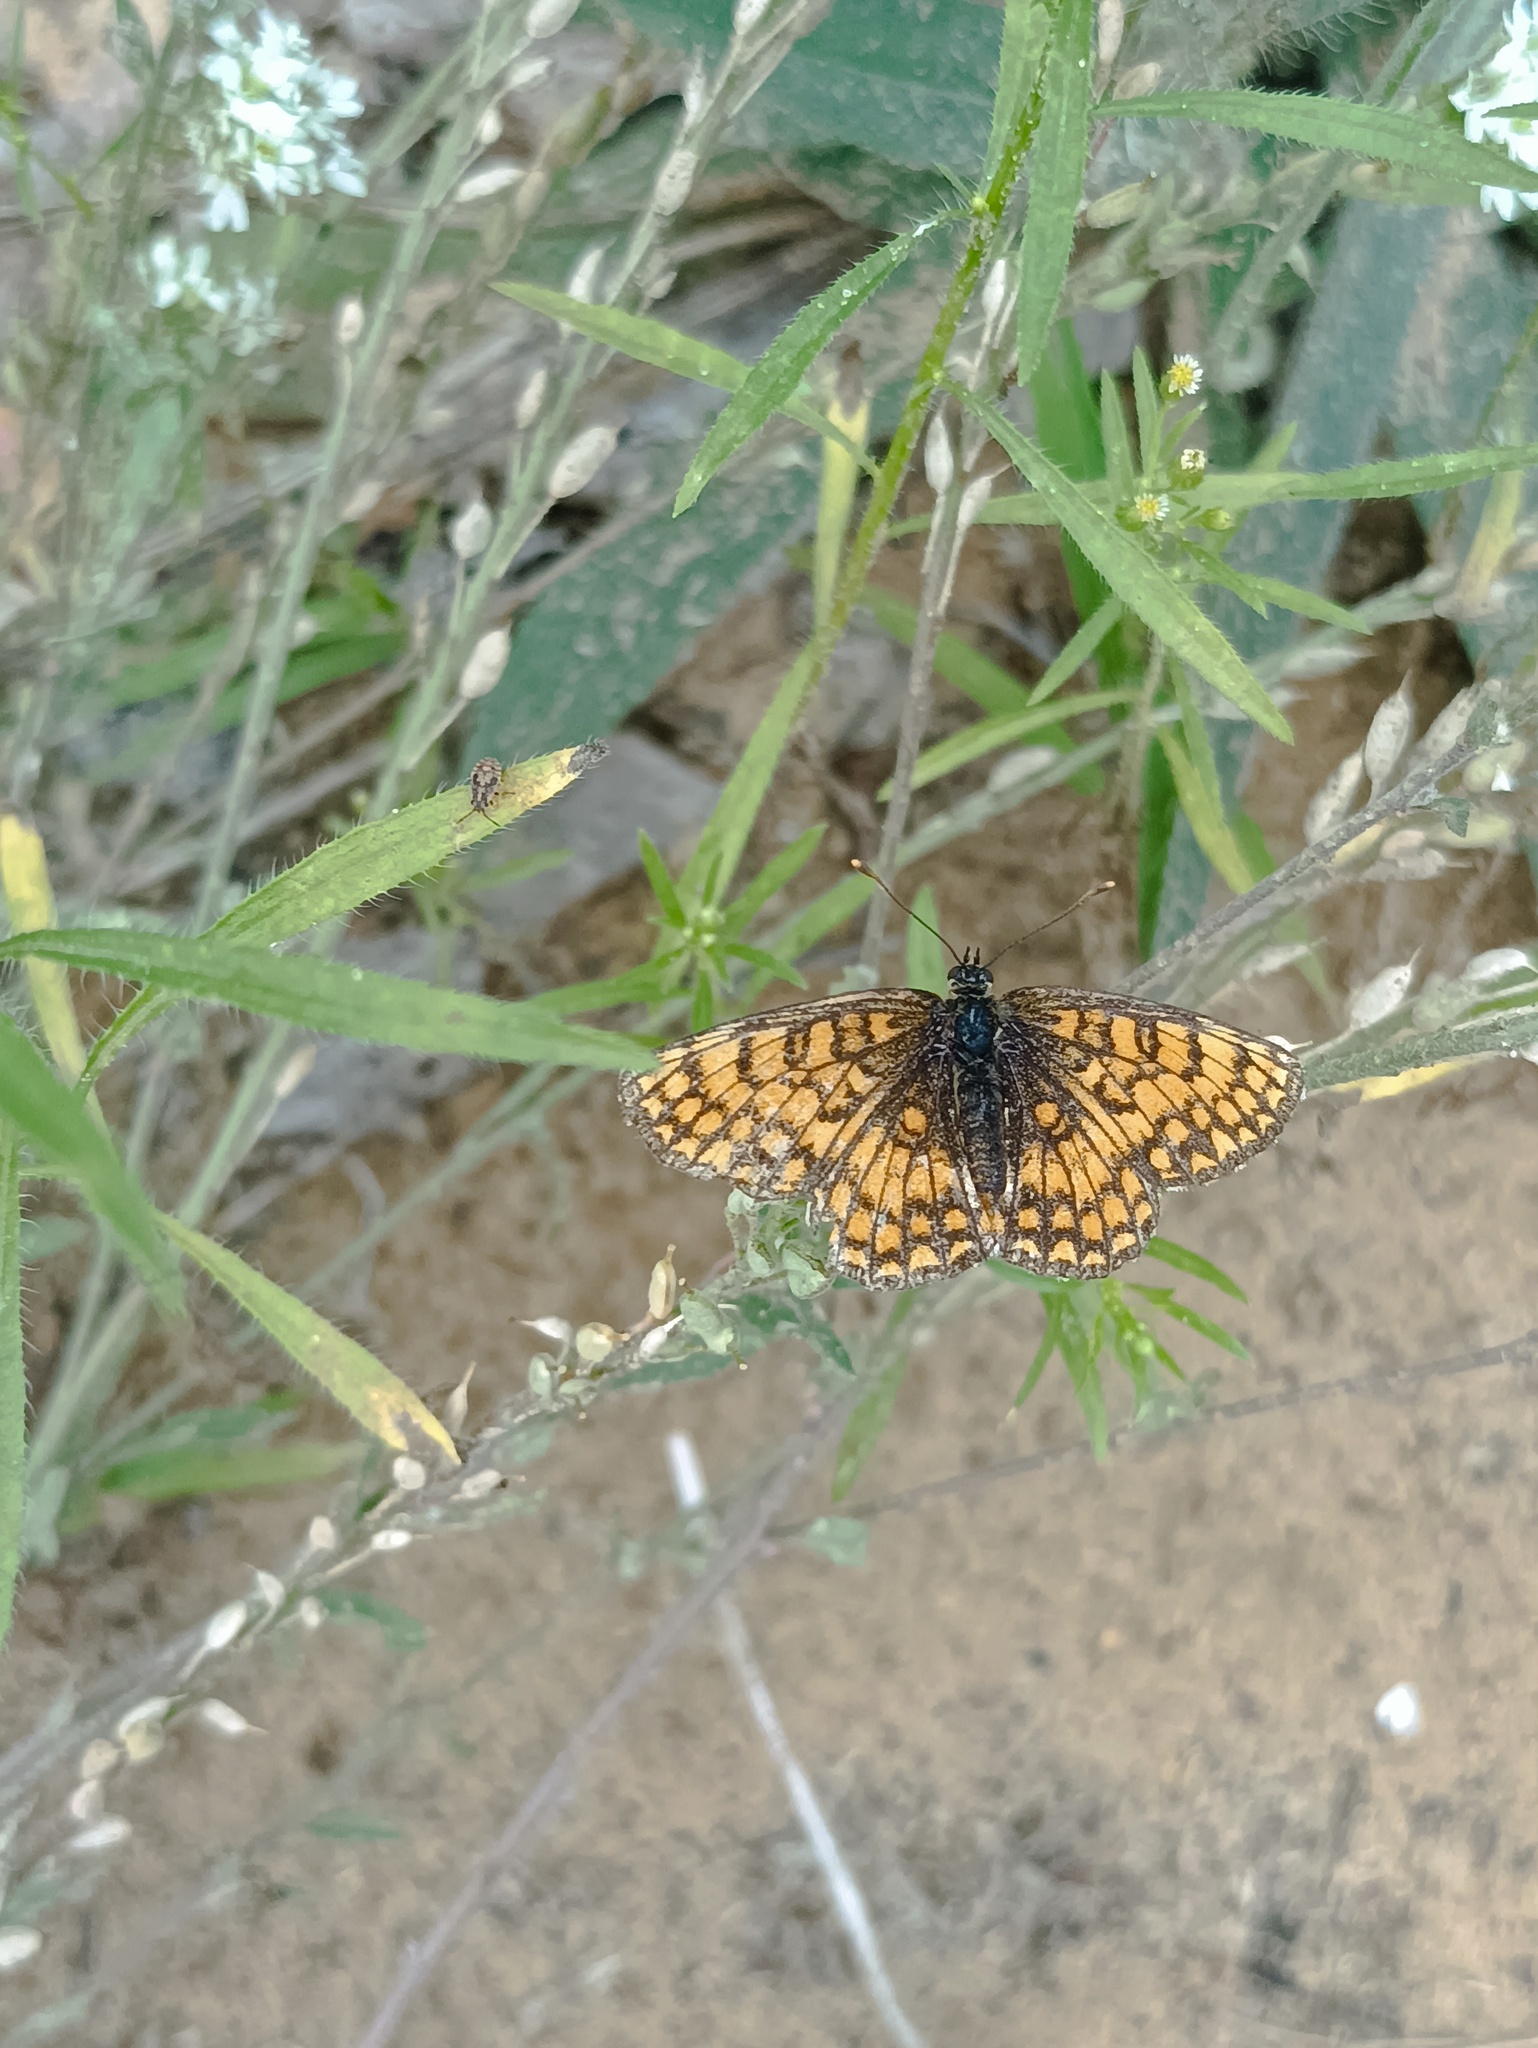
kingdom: Animalia
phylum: Arthropoda
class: Insecta
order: Lepidoptera
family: Nymphalidae
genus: Melitaea
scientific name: Melitaea athalia
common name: Heath fritillary
